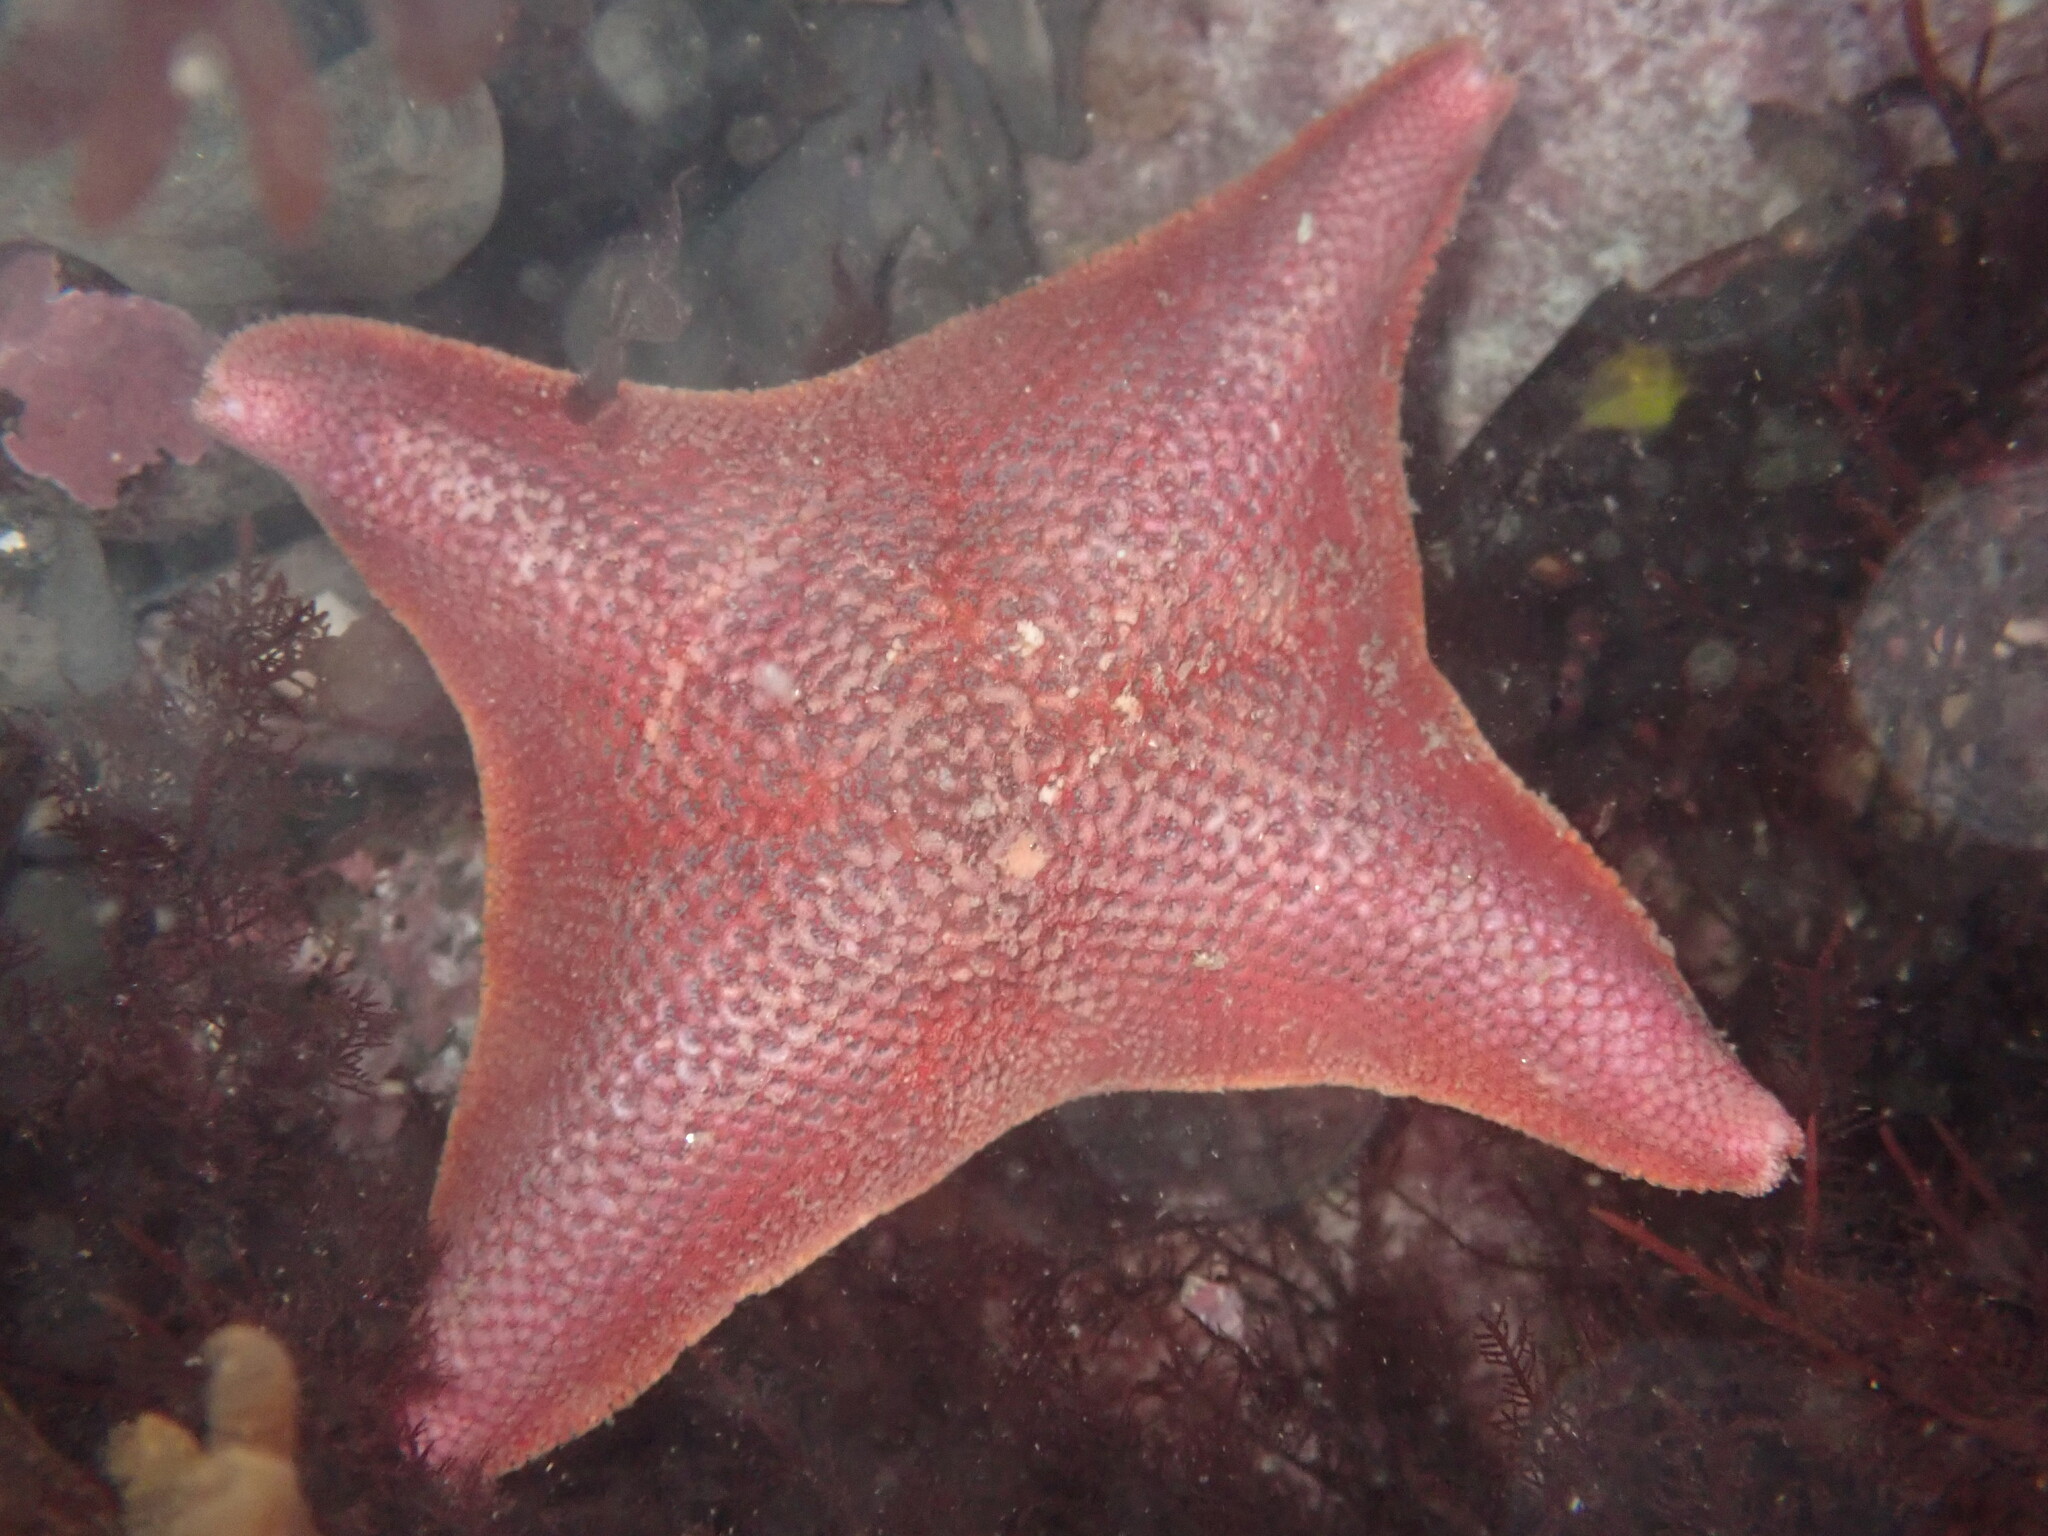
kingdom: Animalia
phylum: Echinodermata
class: Asteroidea
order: Valvatida
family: Asterinidae
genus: Patiria
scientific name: Patiria miniata
